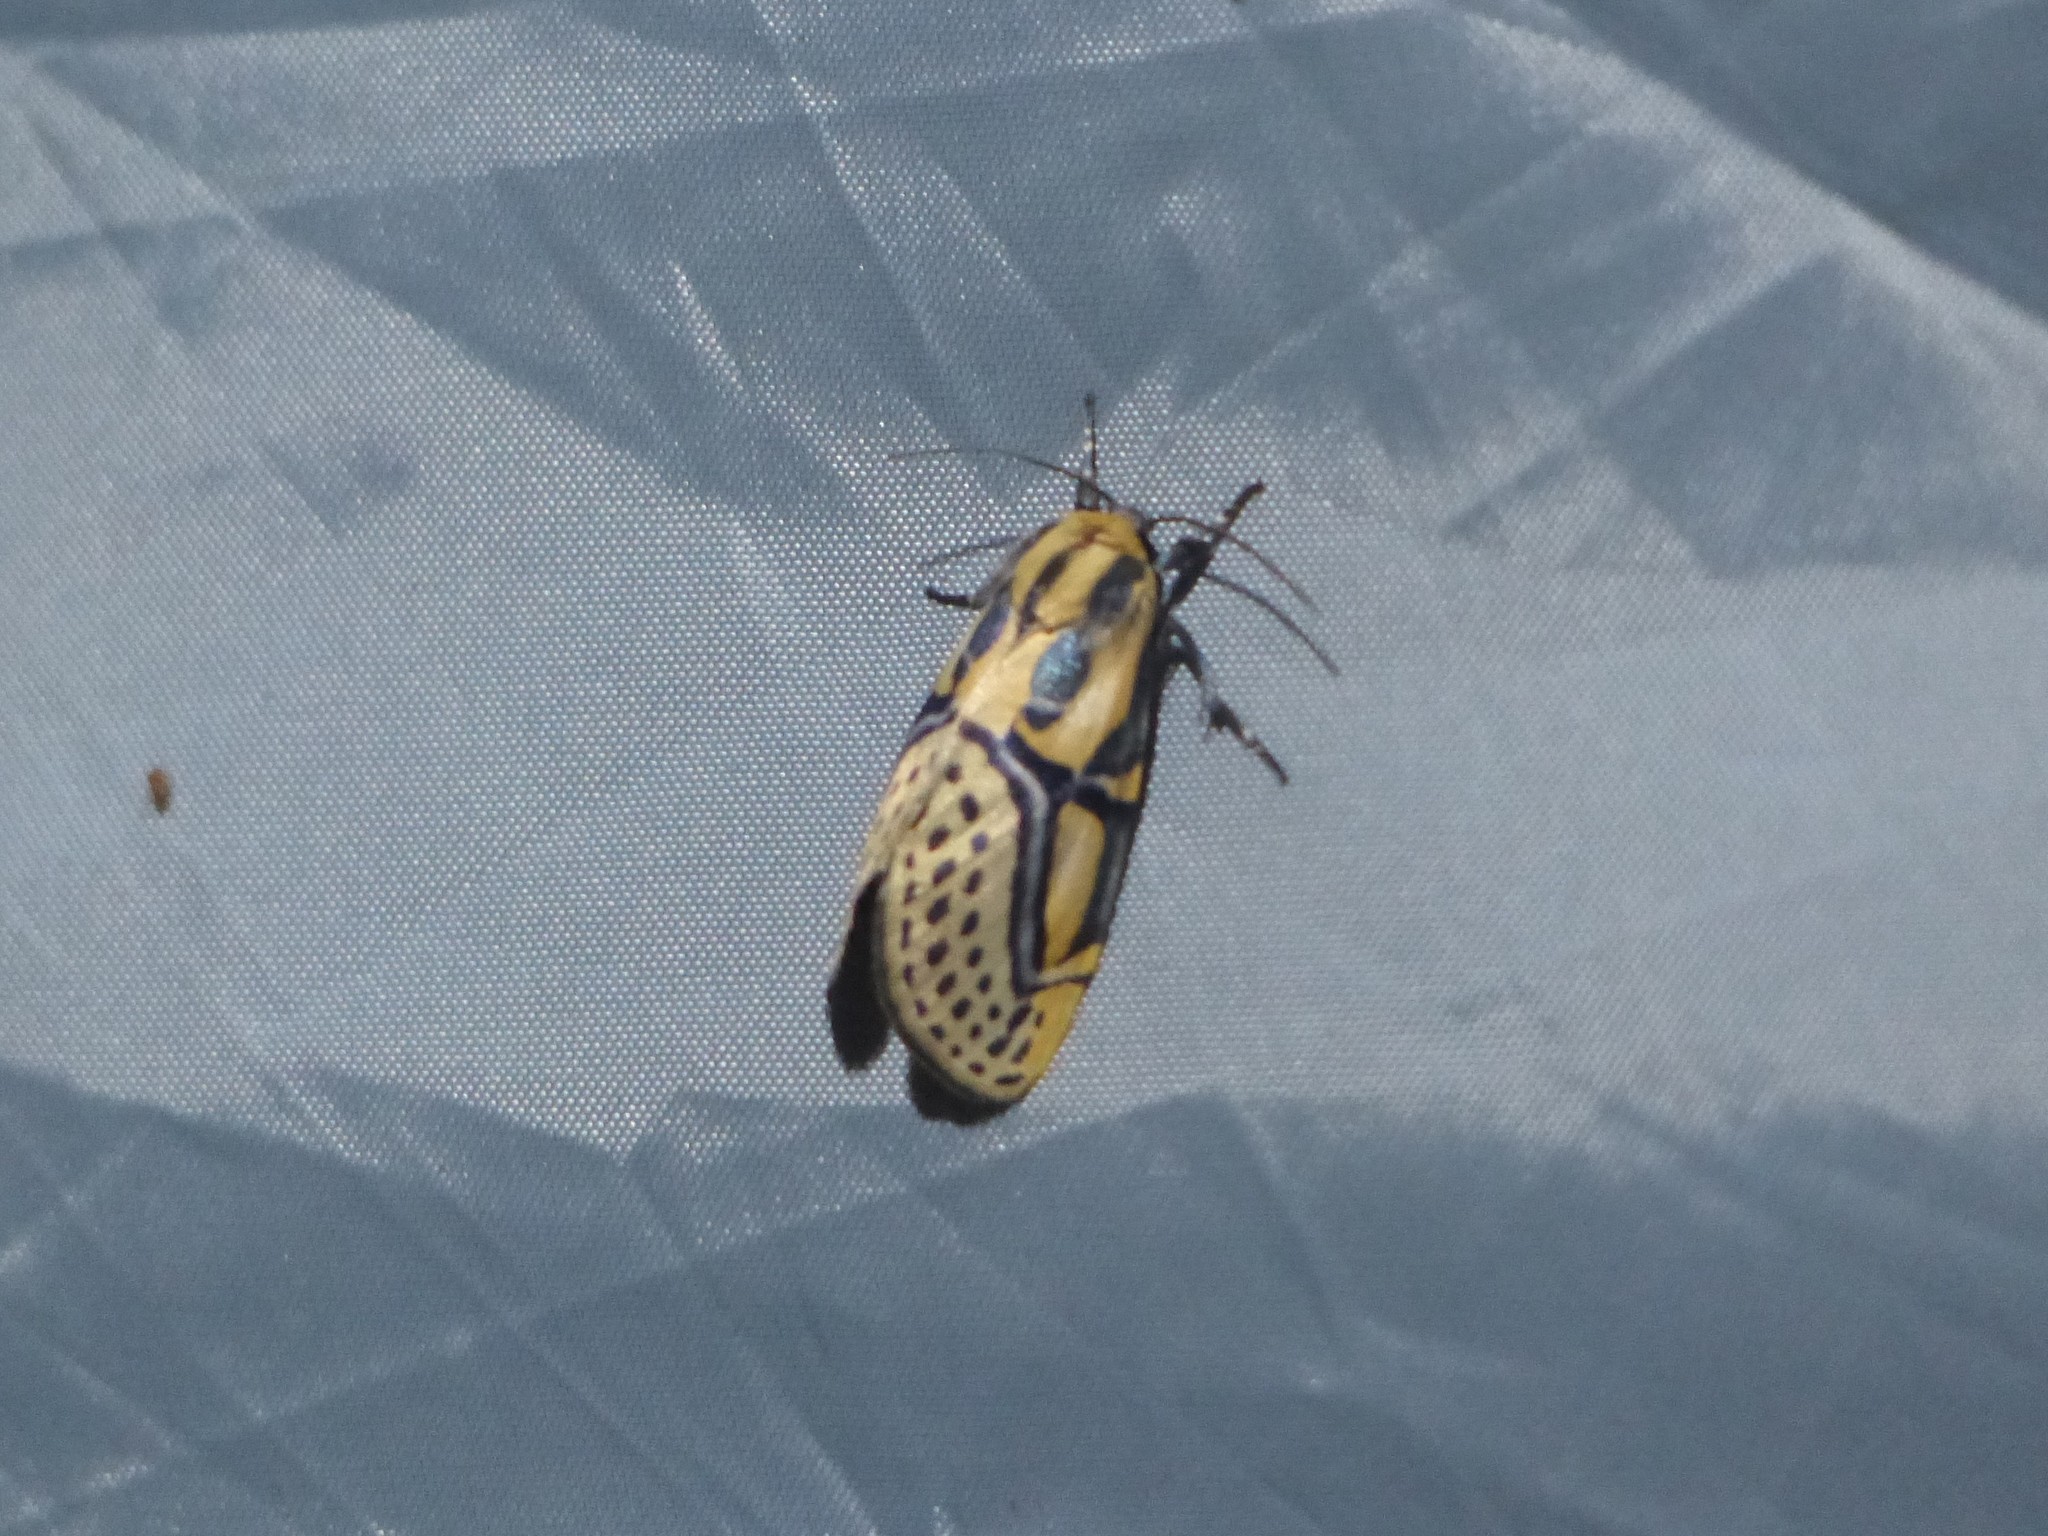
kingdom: Animalia
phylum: Arthropoda
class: Insecta
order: Lepidoptera
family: Erebidae
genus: Diphthera
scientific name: Diphthera festiva
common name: Hieroglyphic moth
